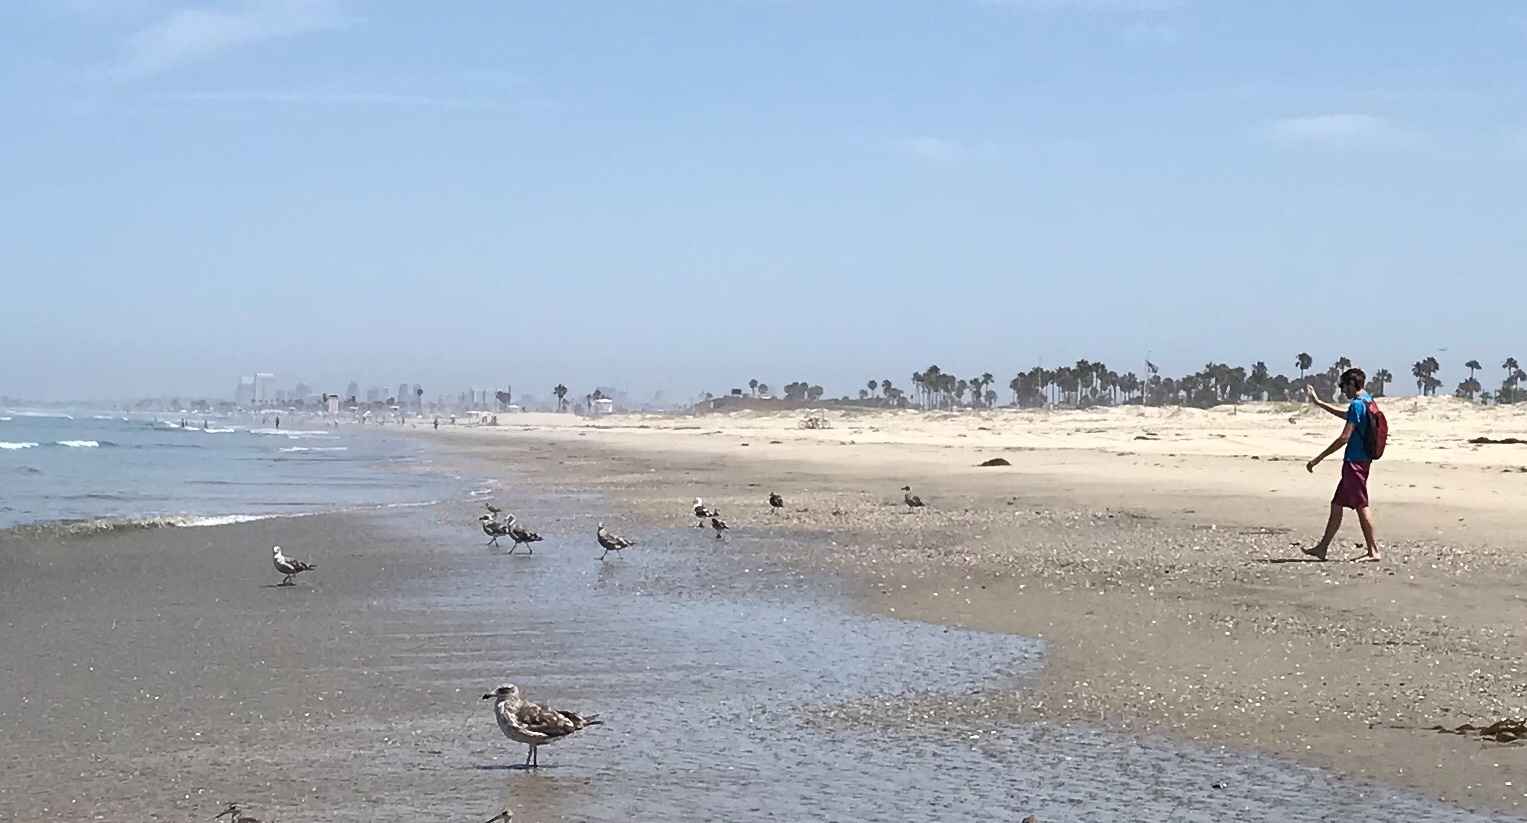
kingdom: Animalia
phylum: Chordata
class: Aves
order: Charadriiformes
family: Laridae
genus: Larus
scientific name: Larus occidentalis
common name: Western gull
